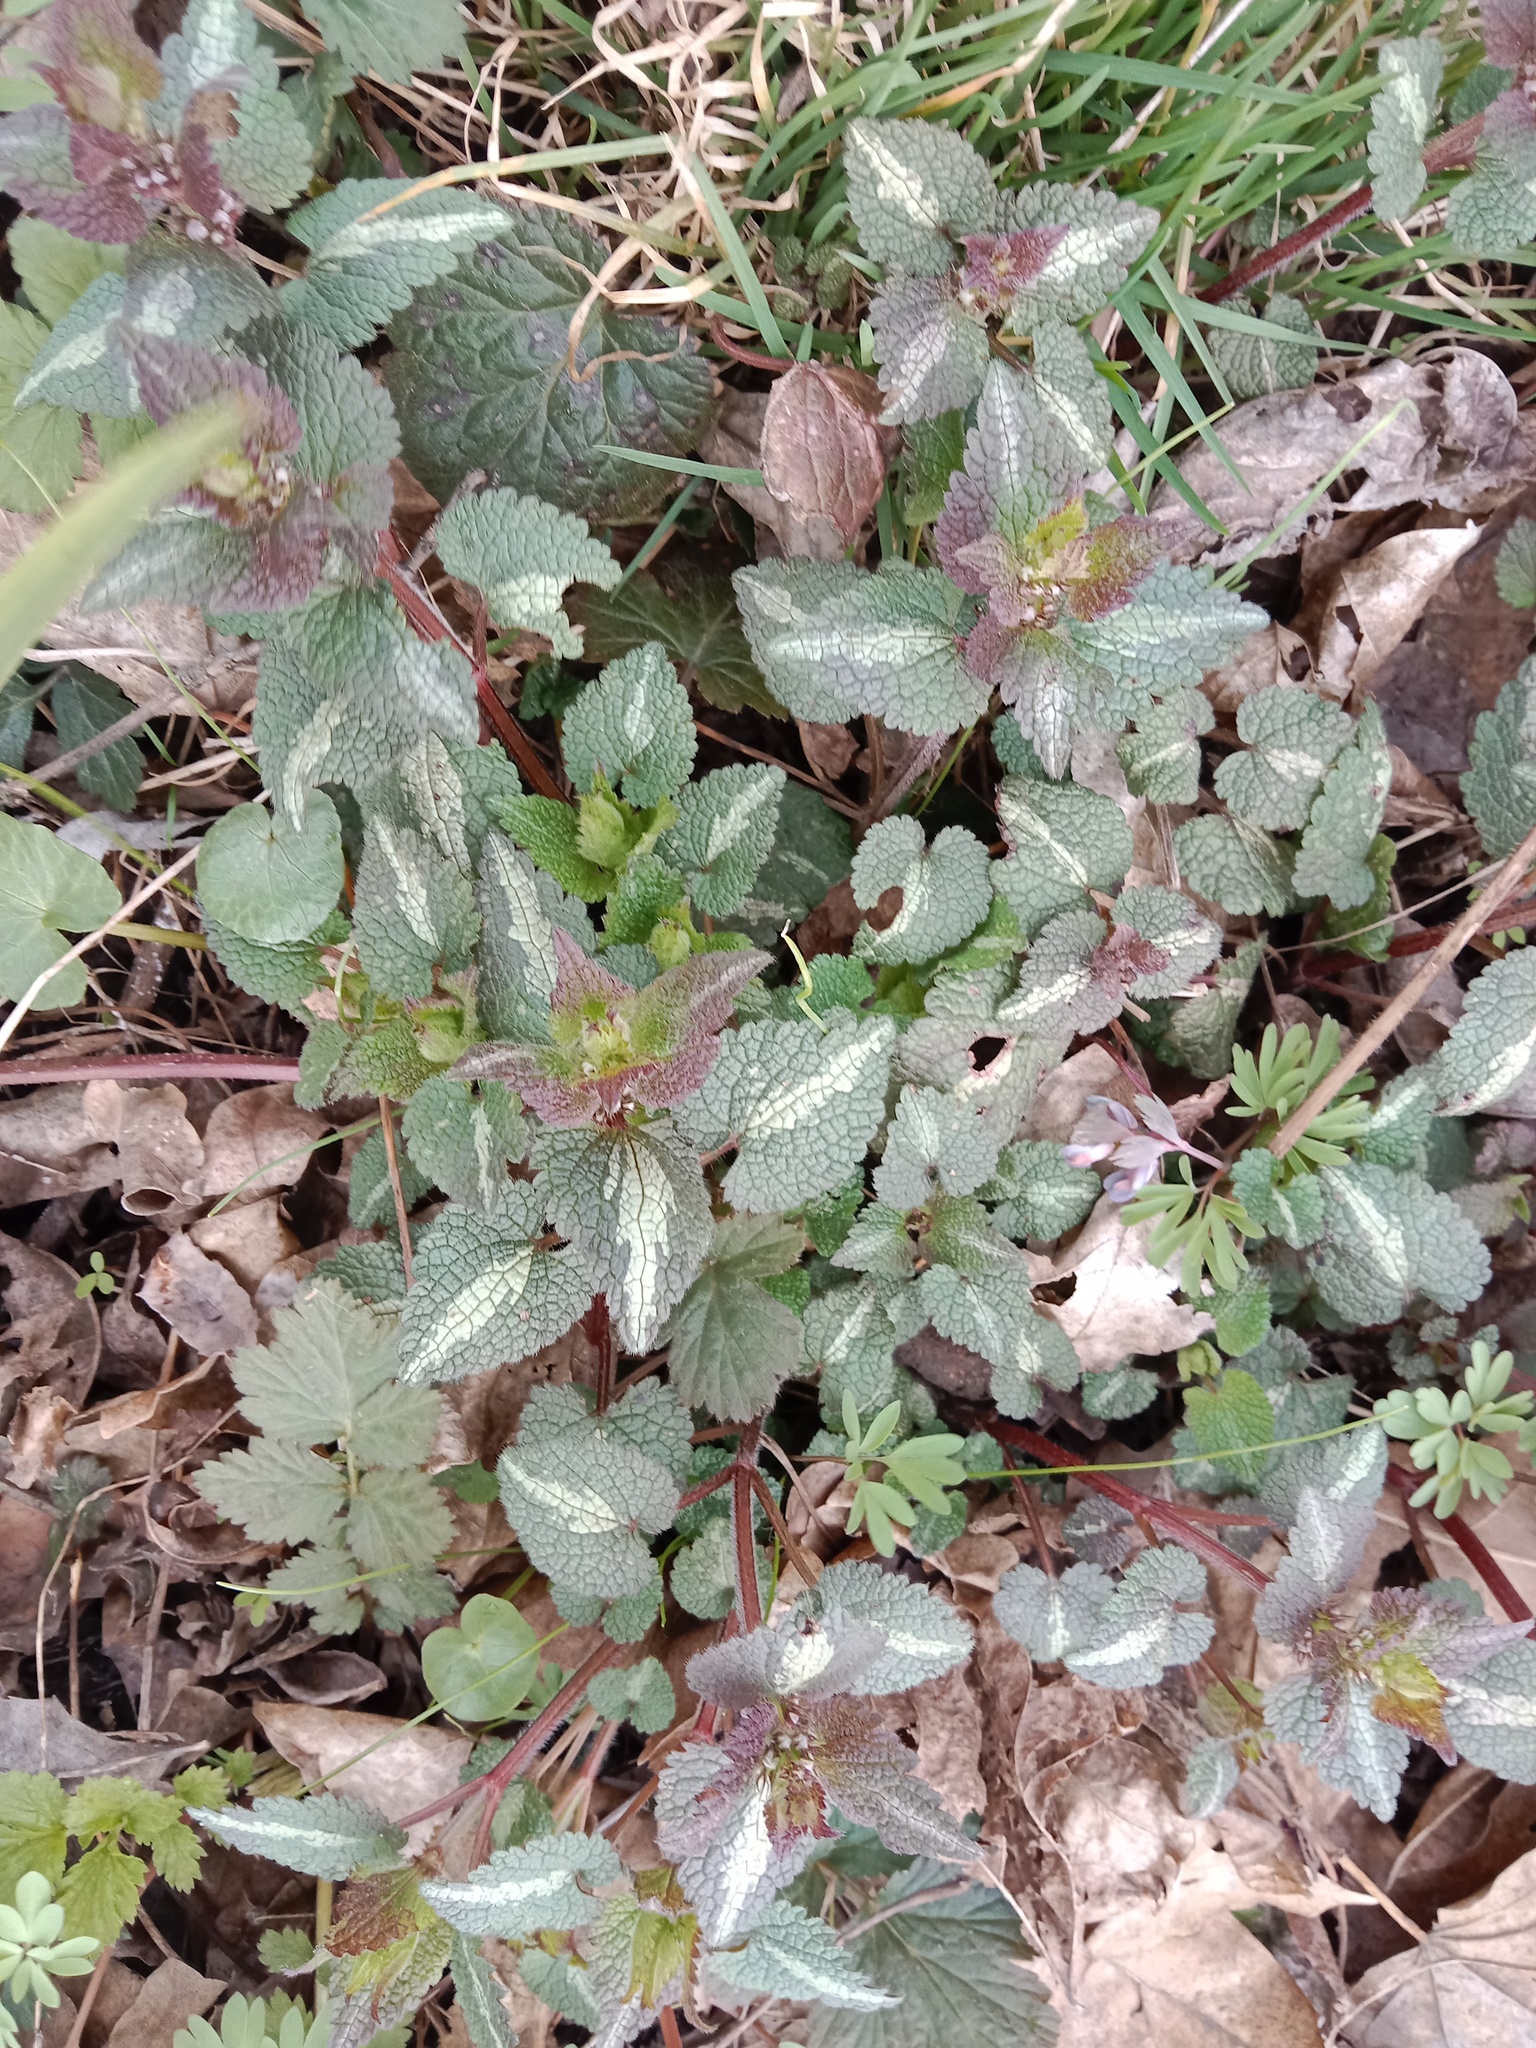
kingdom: Plantae
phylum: Tracheophyta
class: Magnoliopsida
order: Lamiales
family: Lamiaceae
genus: Lamium
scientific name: Lamium maculatum
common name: Spotted dead-nettle
